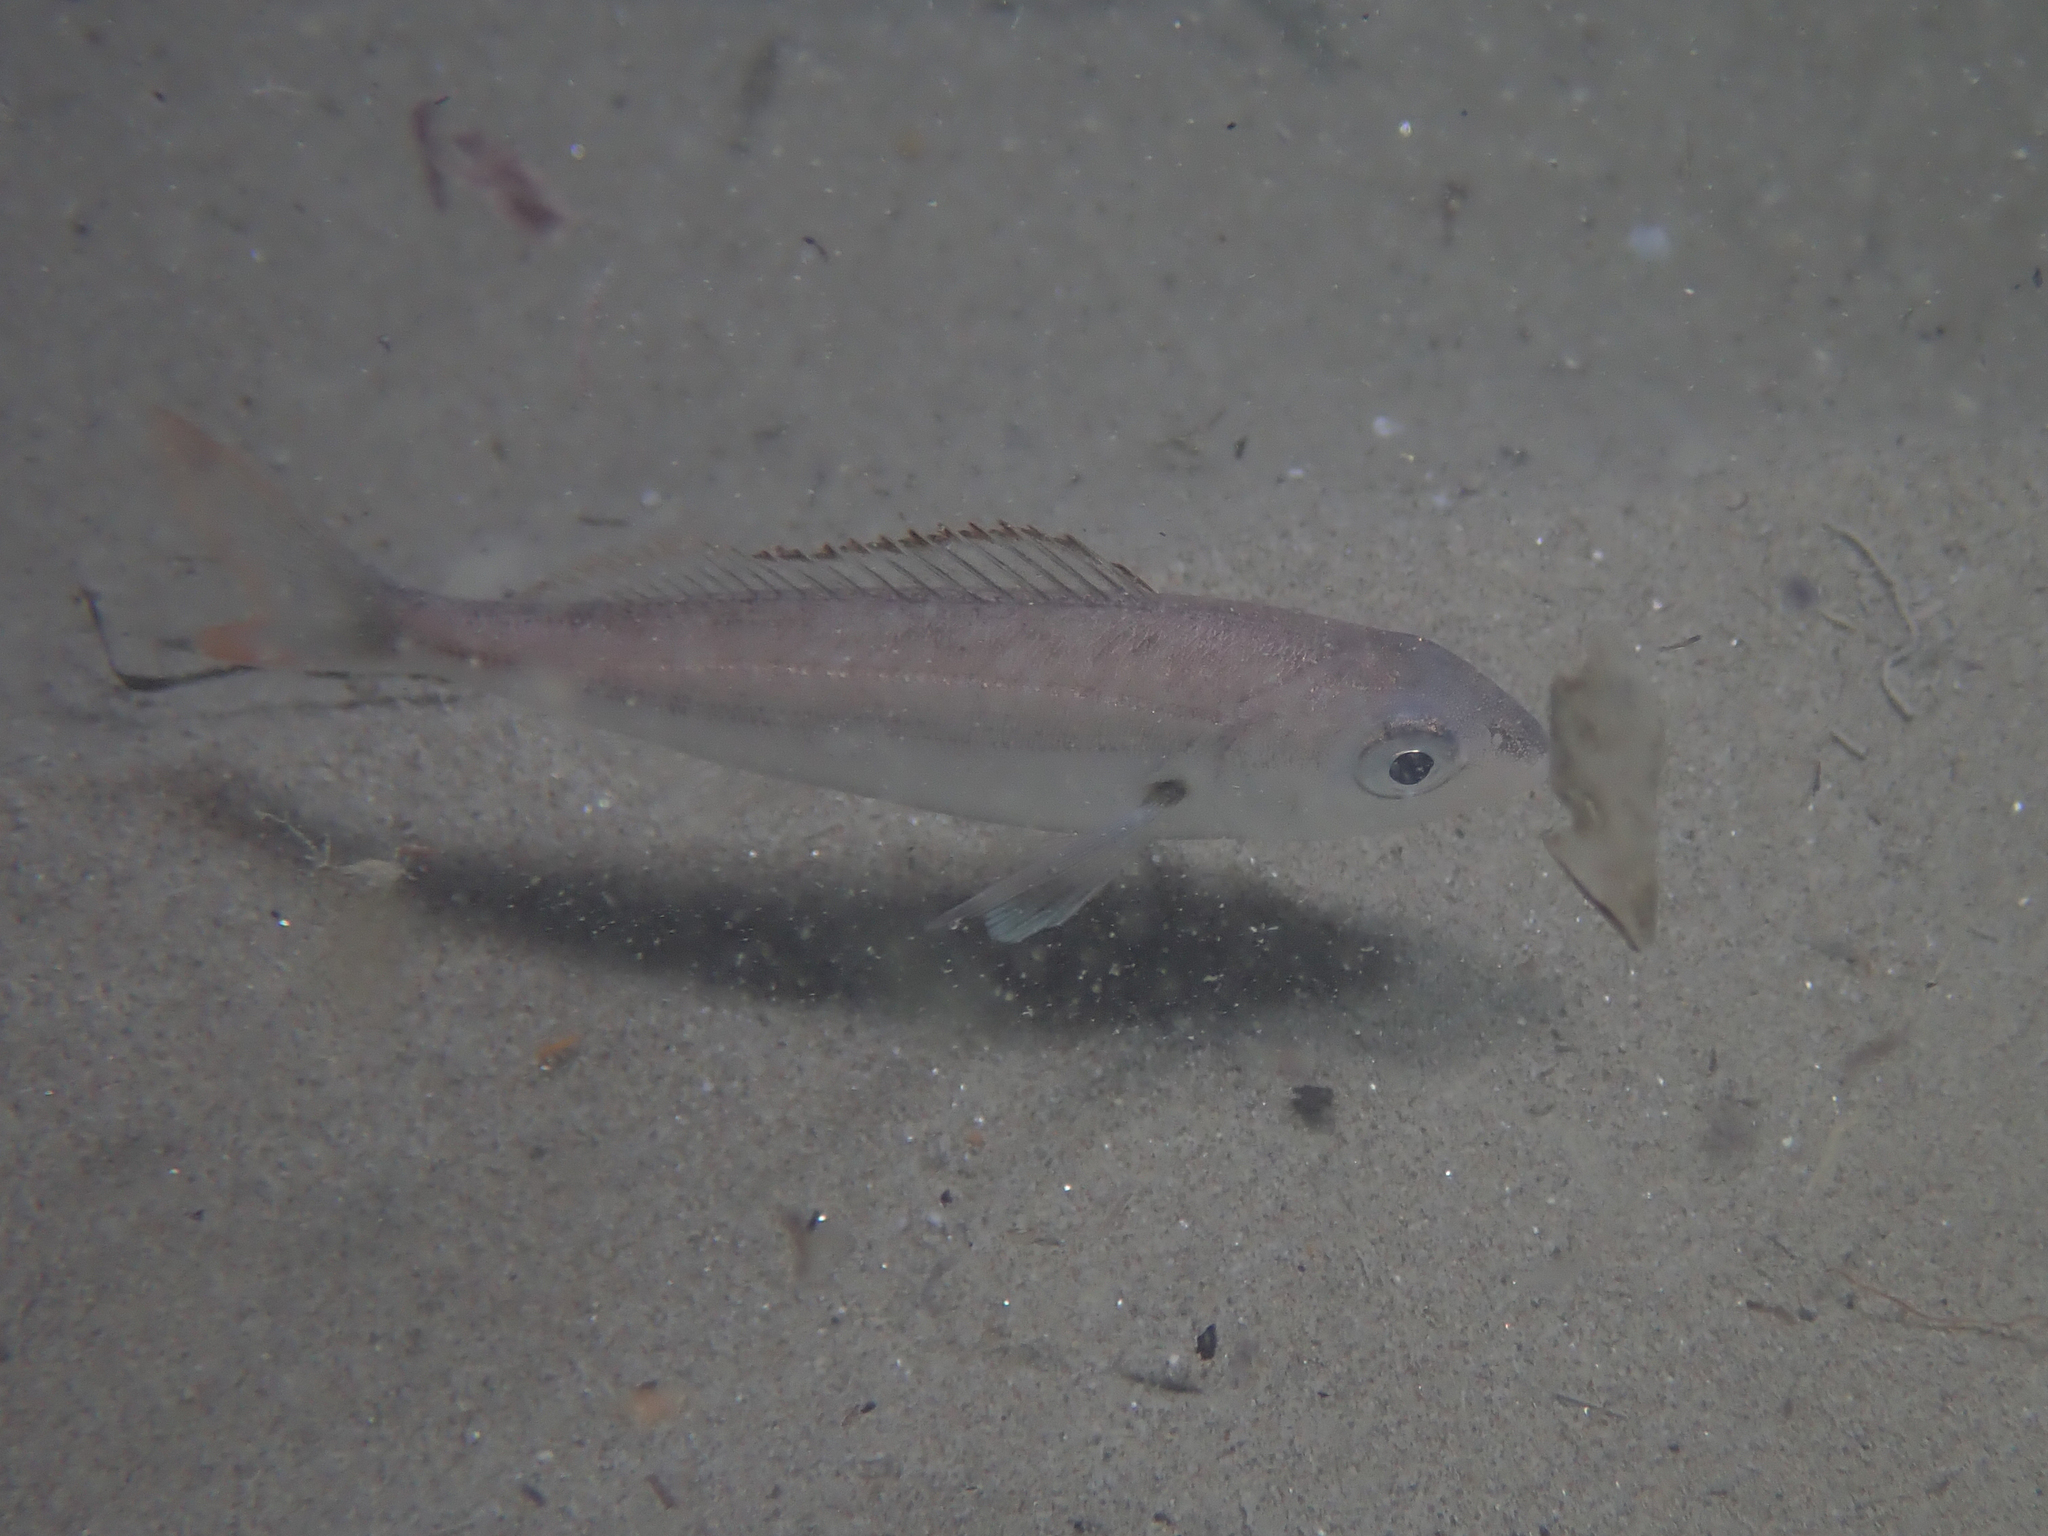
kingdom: Animalia
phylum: Chordata
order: Perciformes
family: Sparidae
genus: Pagellus
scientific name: Pagellus acarne
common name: Axillary sea-bream
